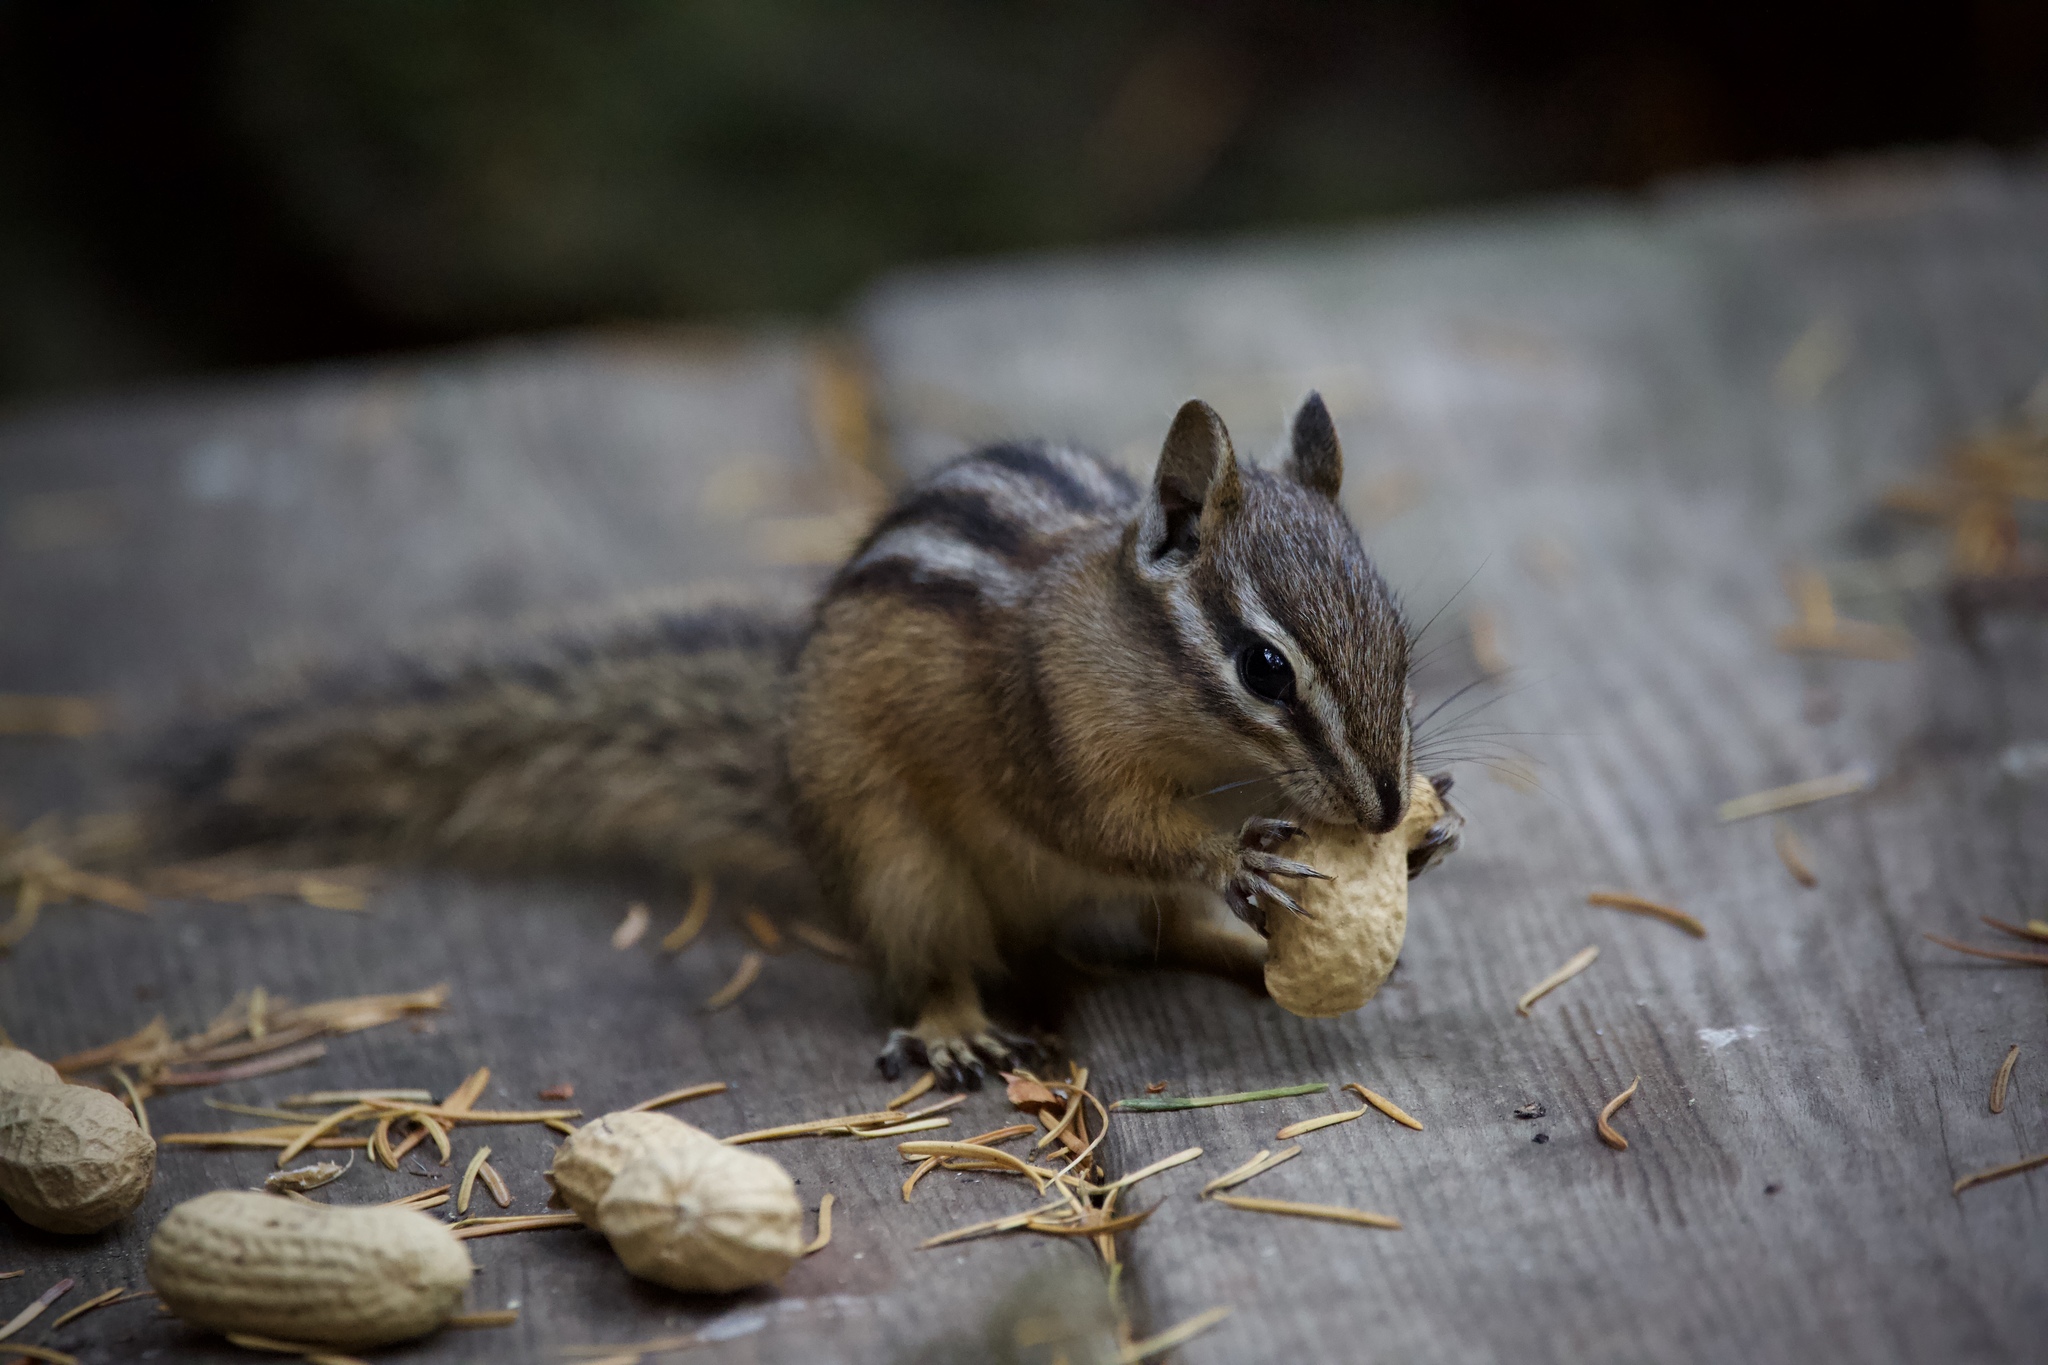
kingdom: Animalia
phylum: Chordata
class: Mammalia
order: Rodentia
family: Sciuridae
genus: Neotamias
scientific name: Neotamias
